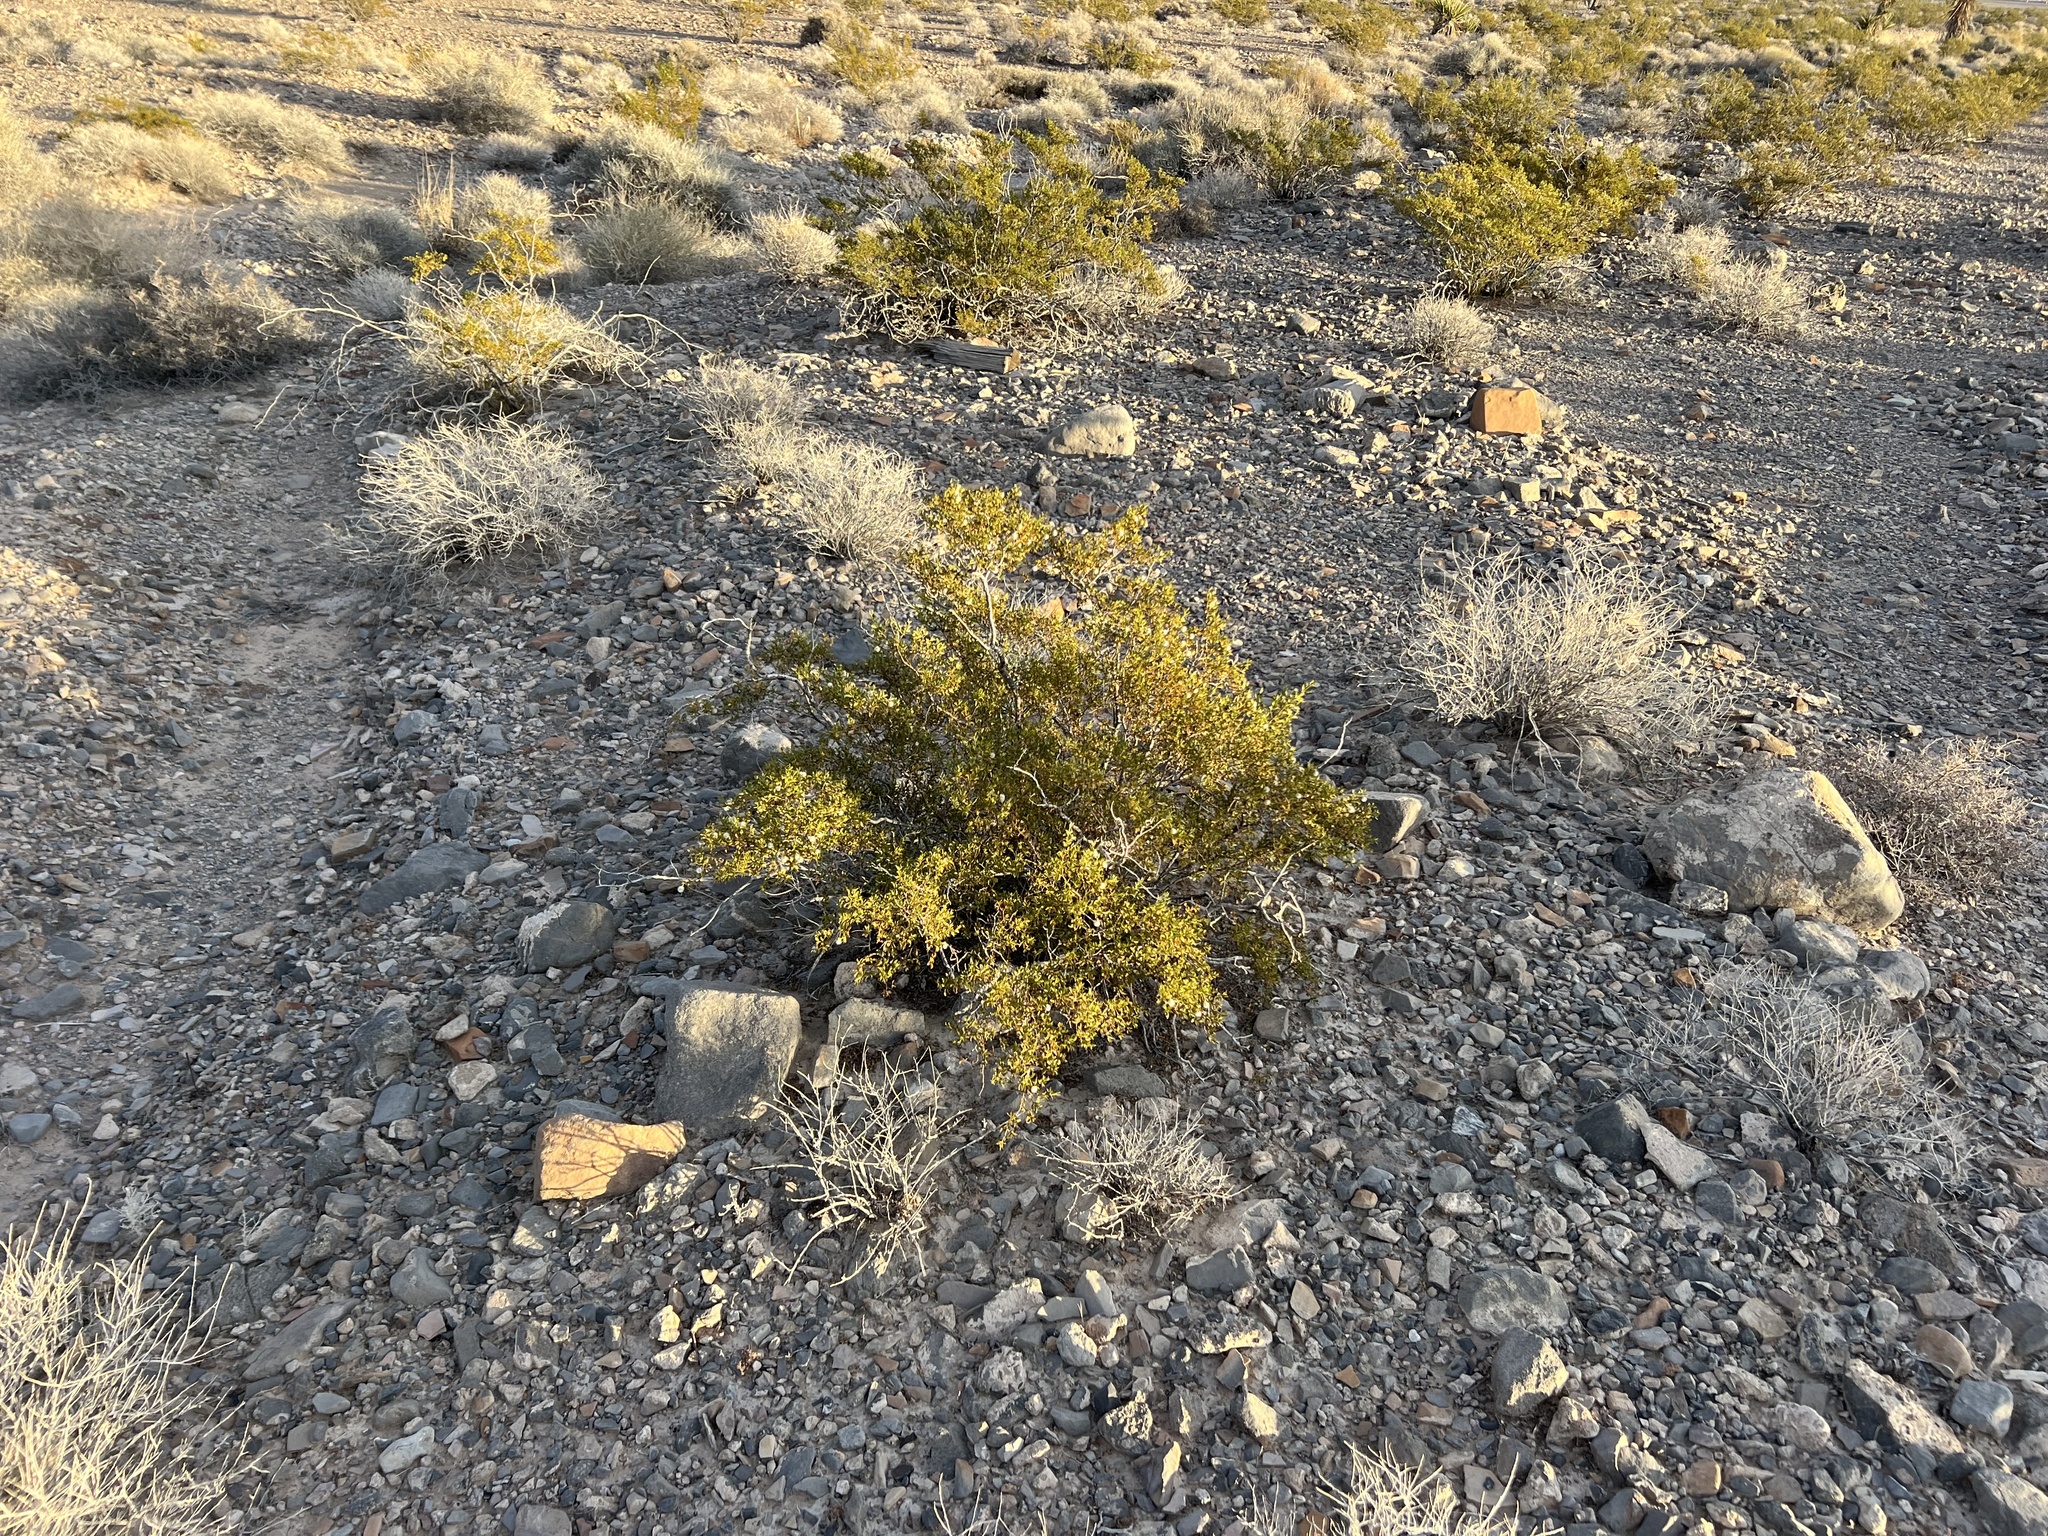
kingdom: Plantae
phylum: Tracheophyta
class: Magnoliopsida
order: Zygophyllales
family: Zygophyllaceae
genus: Larrea
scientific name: Larrea tridentata
